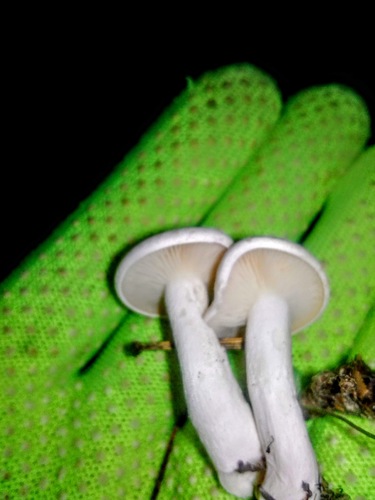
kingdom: Fungi
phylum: Basidiomycota
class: Agaricomycetes
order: Agaricales
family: Entolomataceae
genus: Clitopilus
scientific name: Clitopilus prunulus
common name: The miller
